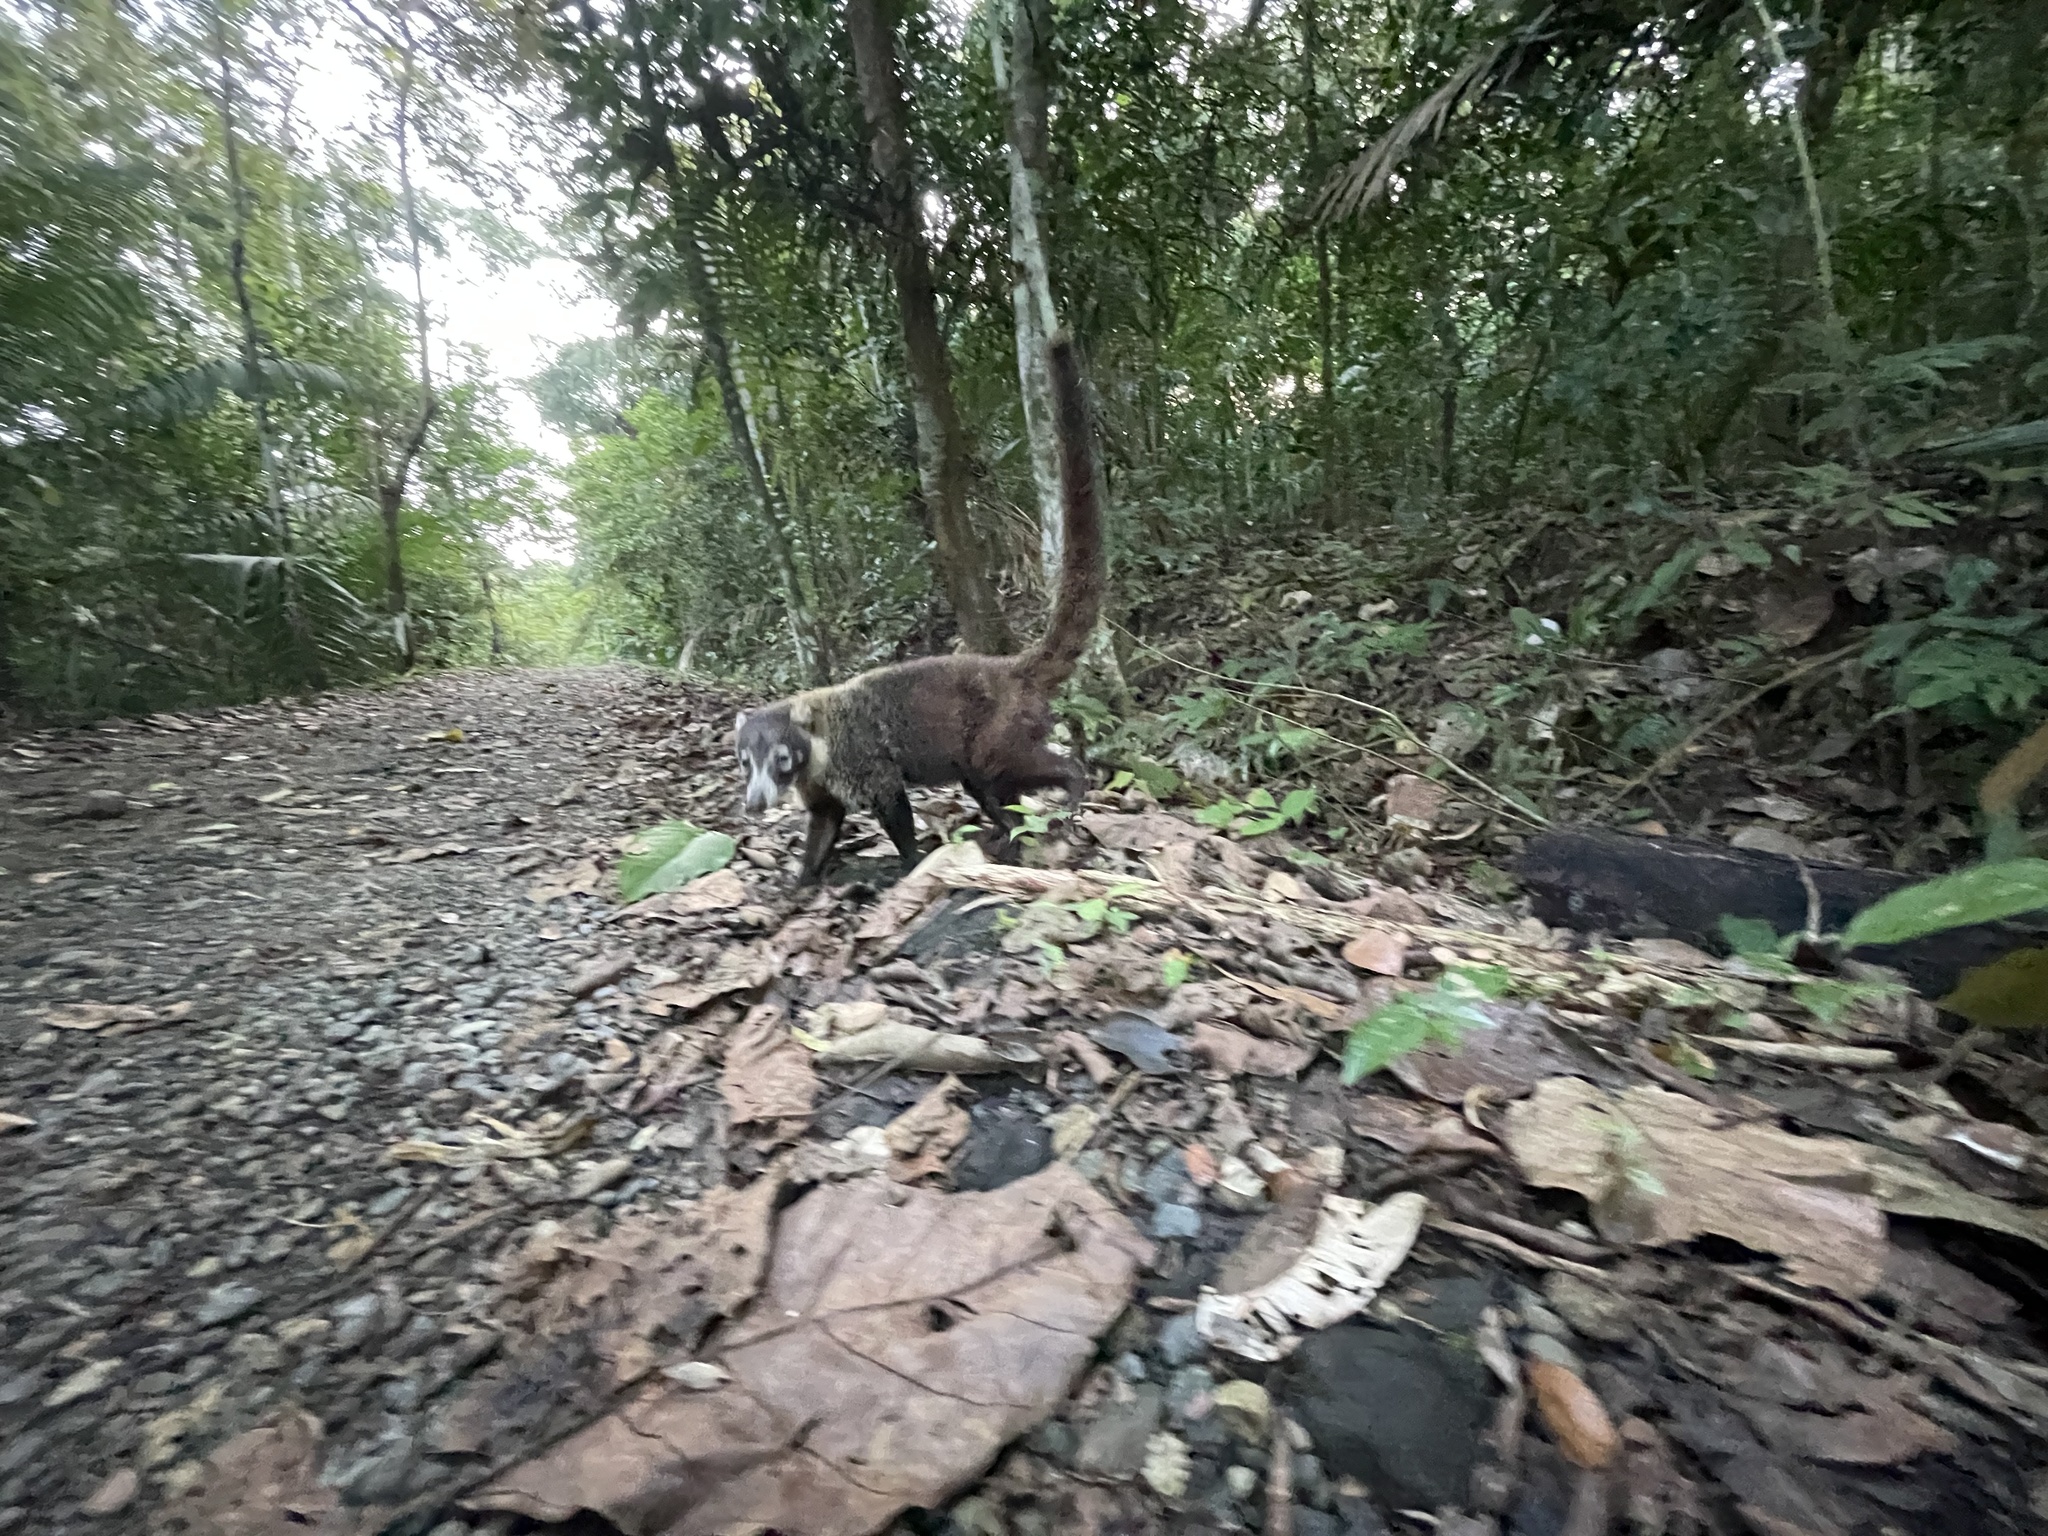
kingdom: Animalia
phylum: Chordata
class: Mammalia
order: Carnivora
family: Procyonidae
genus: Nasua
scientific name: Nasua narica
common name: White-nosed coati
